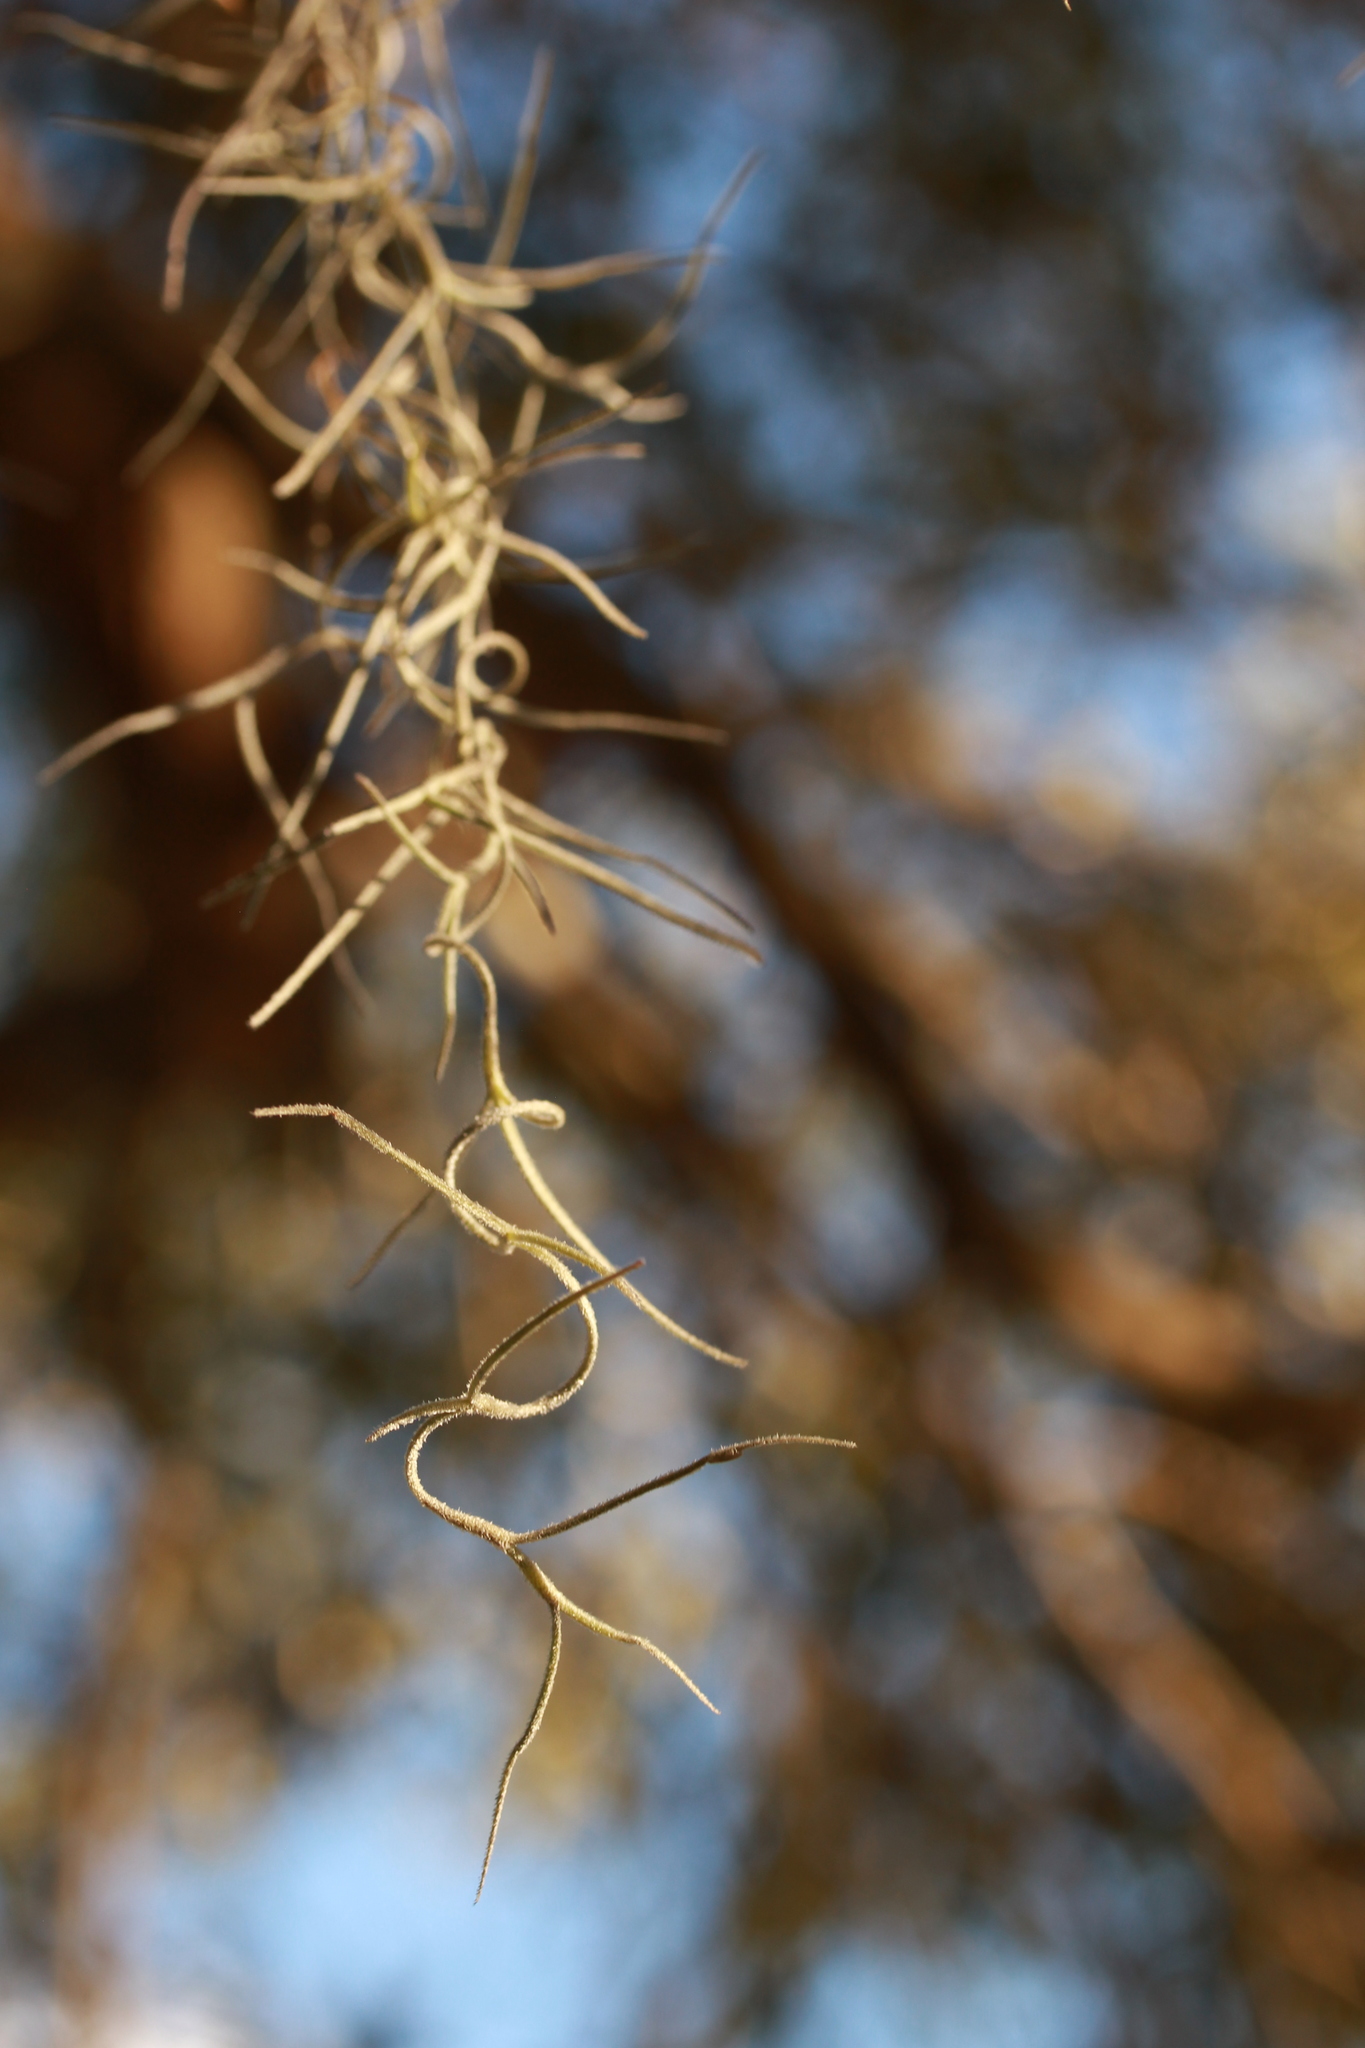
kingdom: Plantae
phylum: Tracheophyta
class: Liliopsida
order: Poales
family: Bromeliaceae
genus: Tillandsia
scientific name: Tillandsia usneoides
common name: Spanish moss
